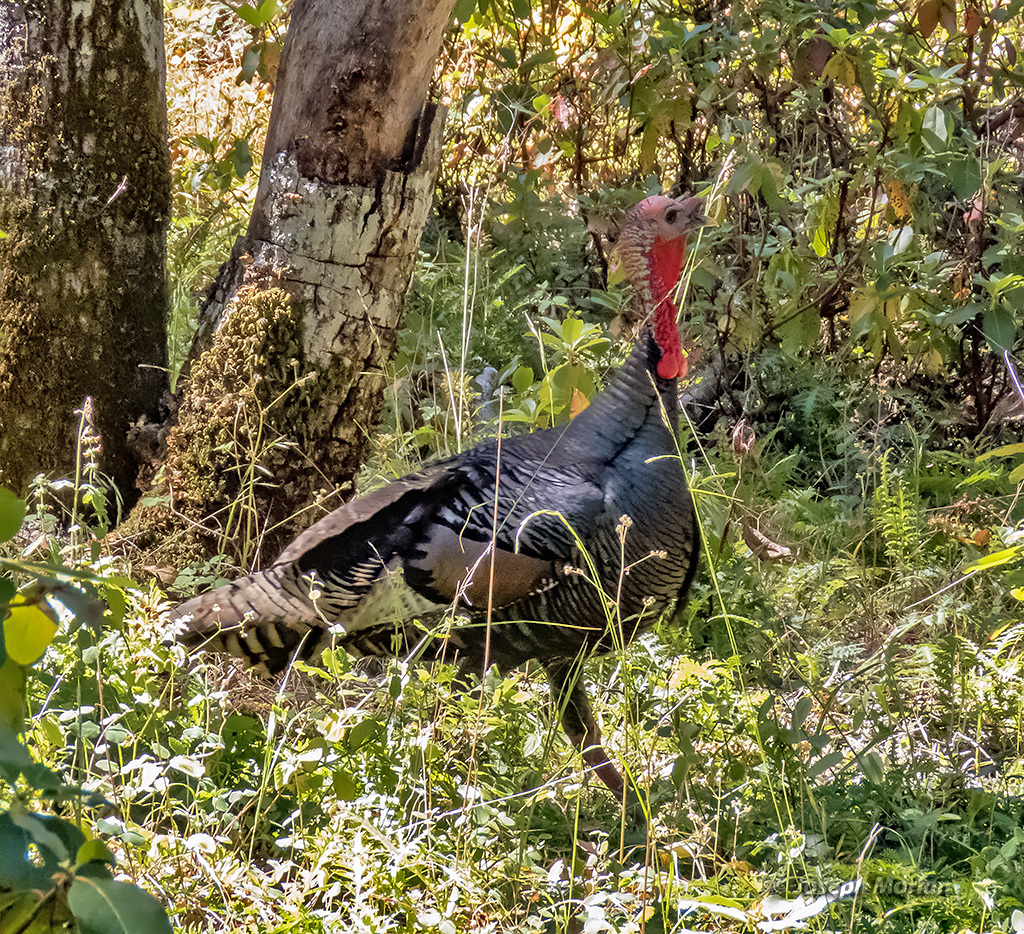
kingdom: Animalia
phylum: Chordata
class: Aves
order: Galliformes
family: Phasianidae
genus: Meleagris
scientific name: Meleagris gallopavo
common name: Wild turkey
